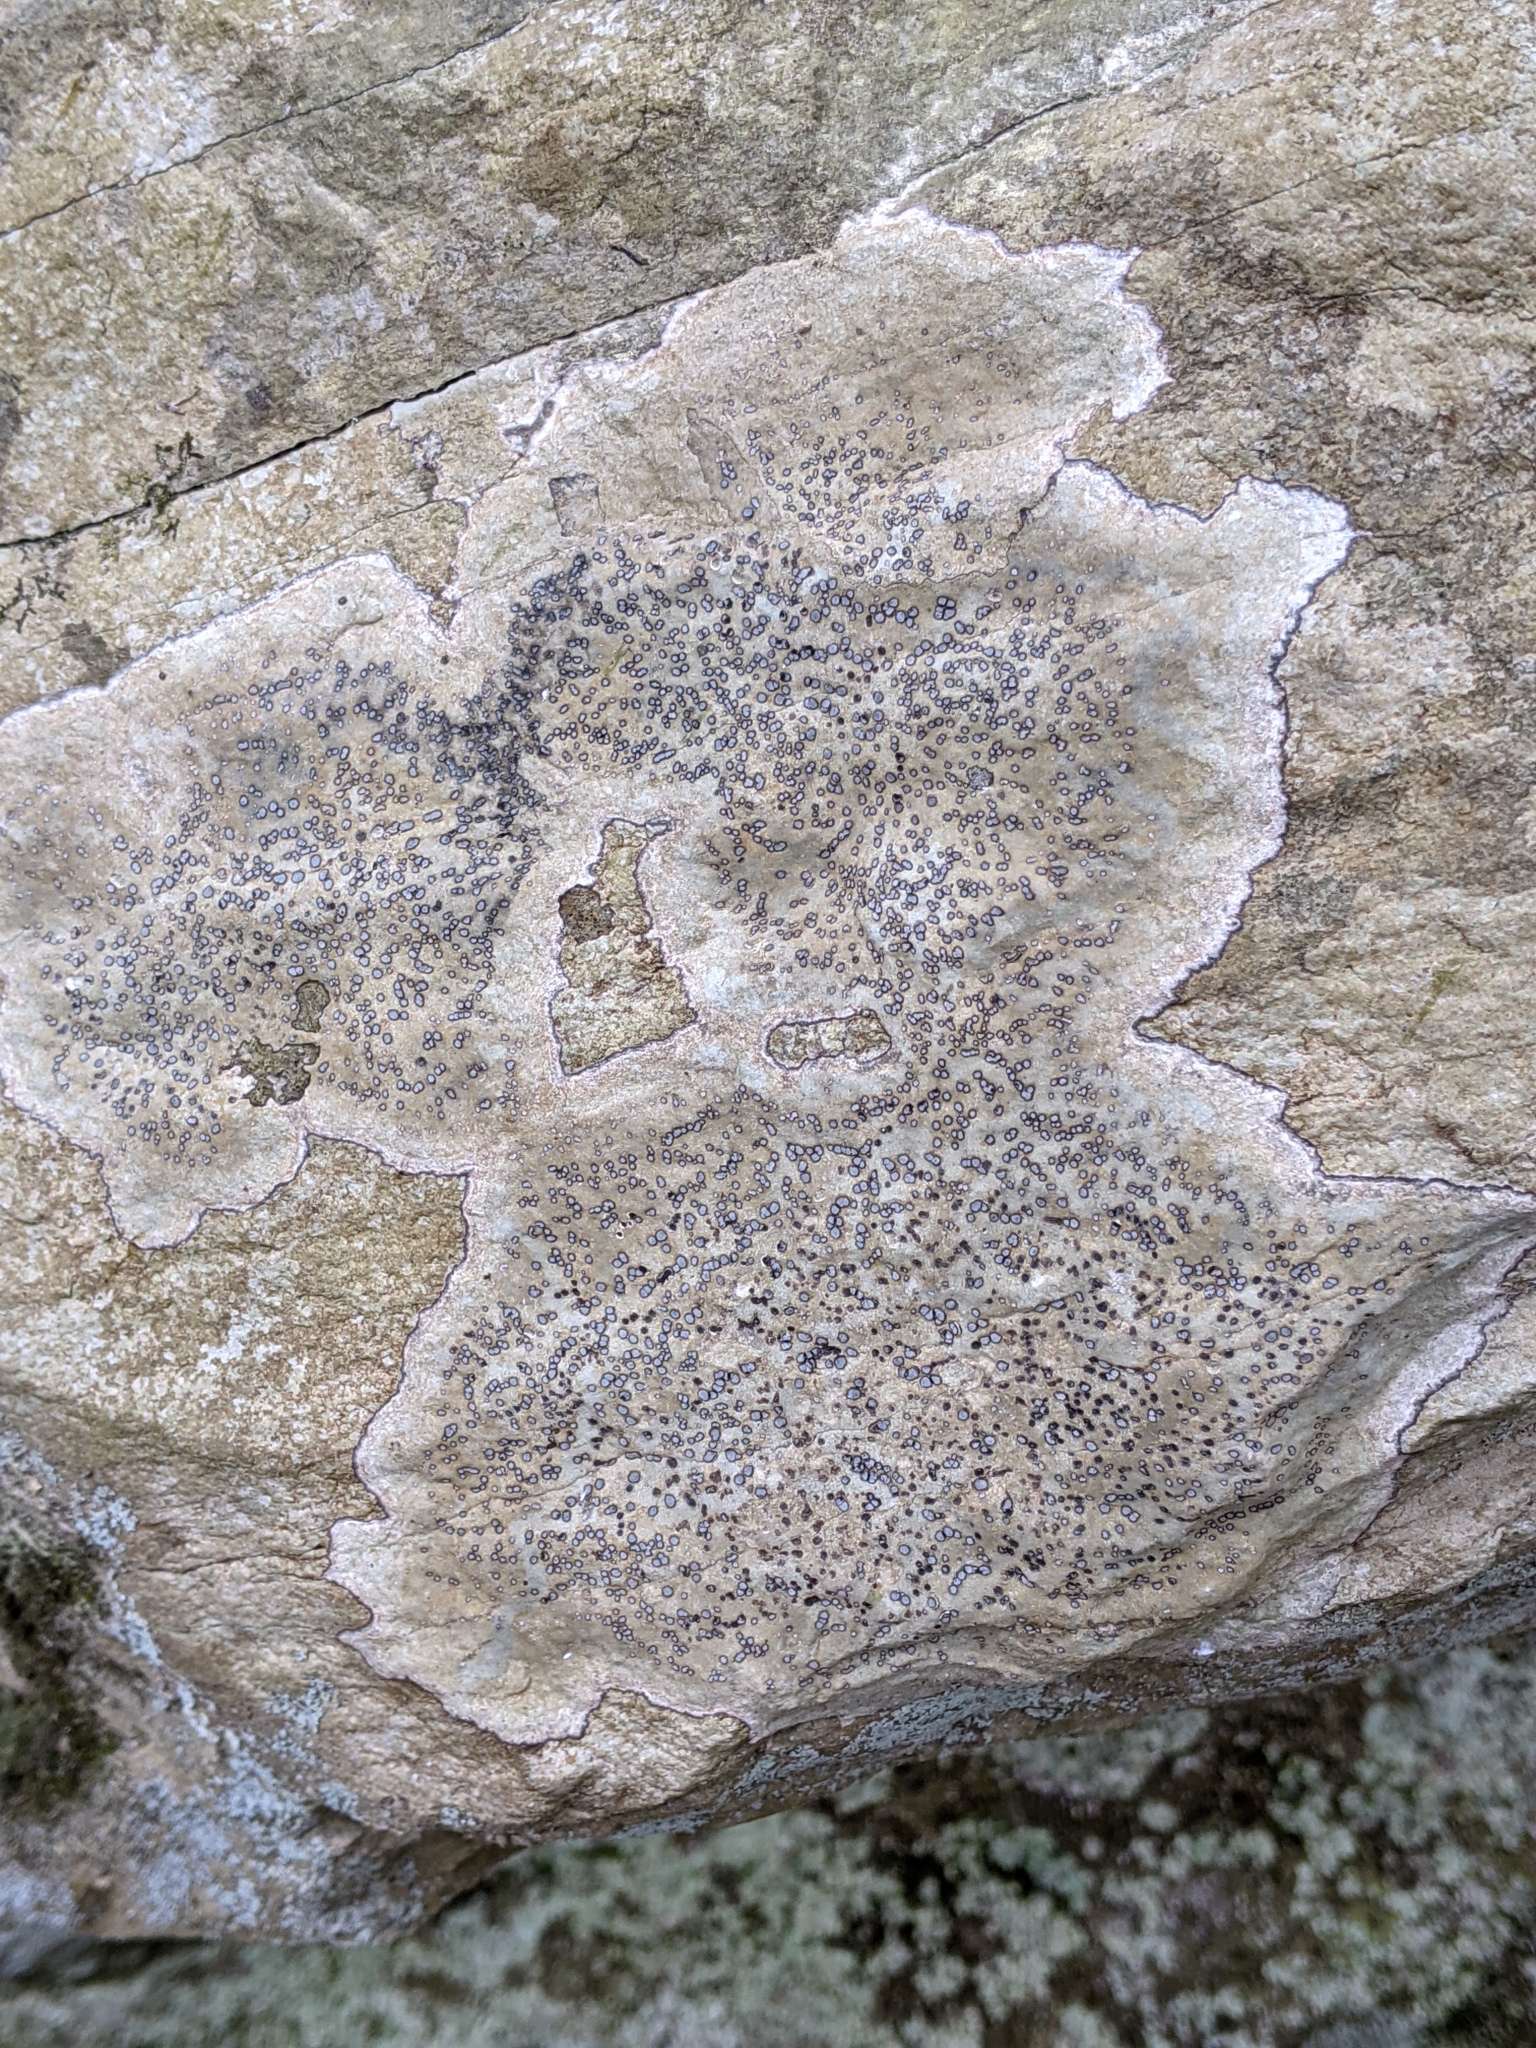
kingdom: Fungi
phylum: Ascomycota
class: Lecanoromycetes
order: Lecideales
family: Lecideaceae
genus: Porpidia
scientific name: Porpidia albocaerulescens
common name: Smokey-eyed boulder lichen
